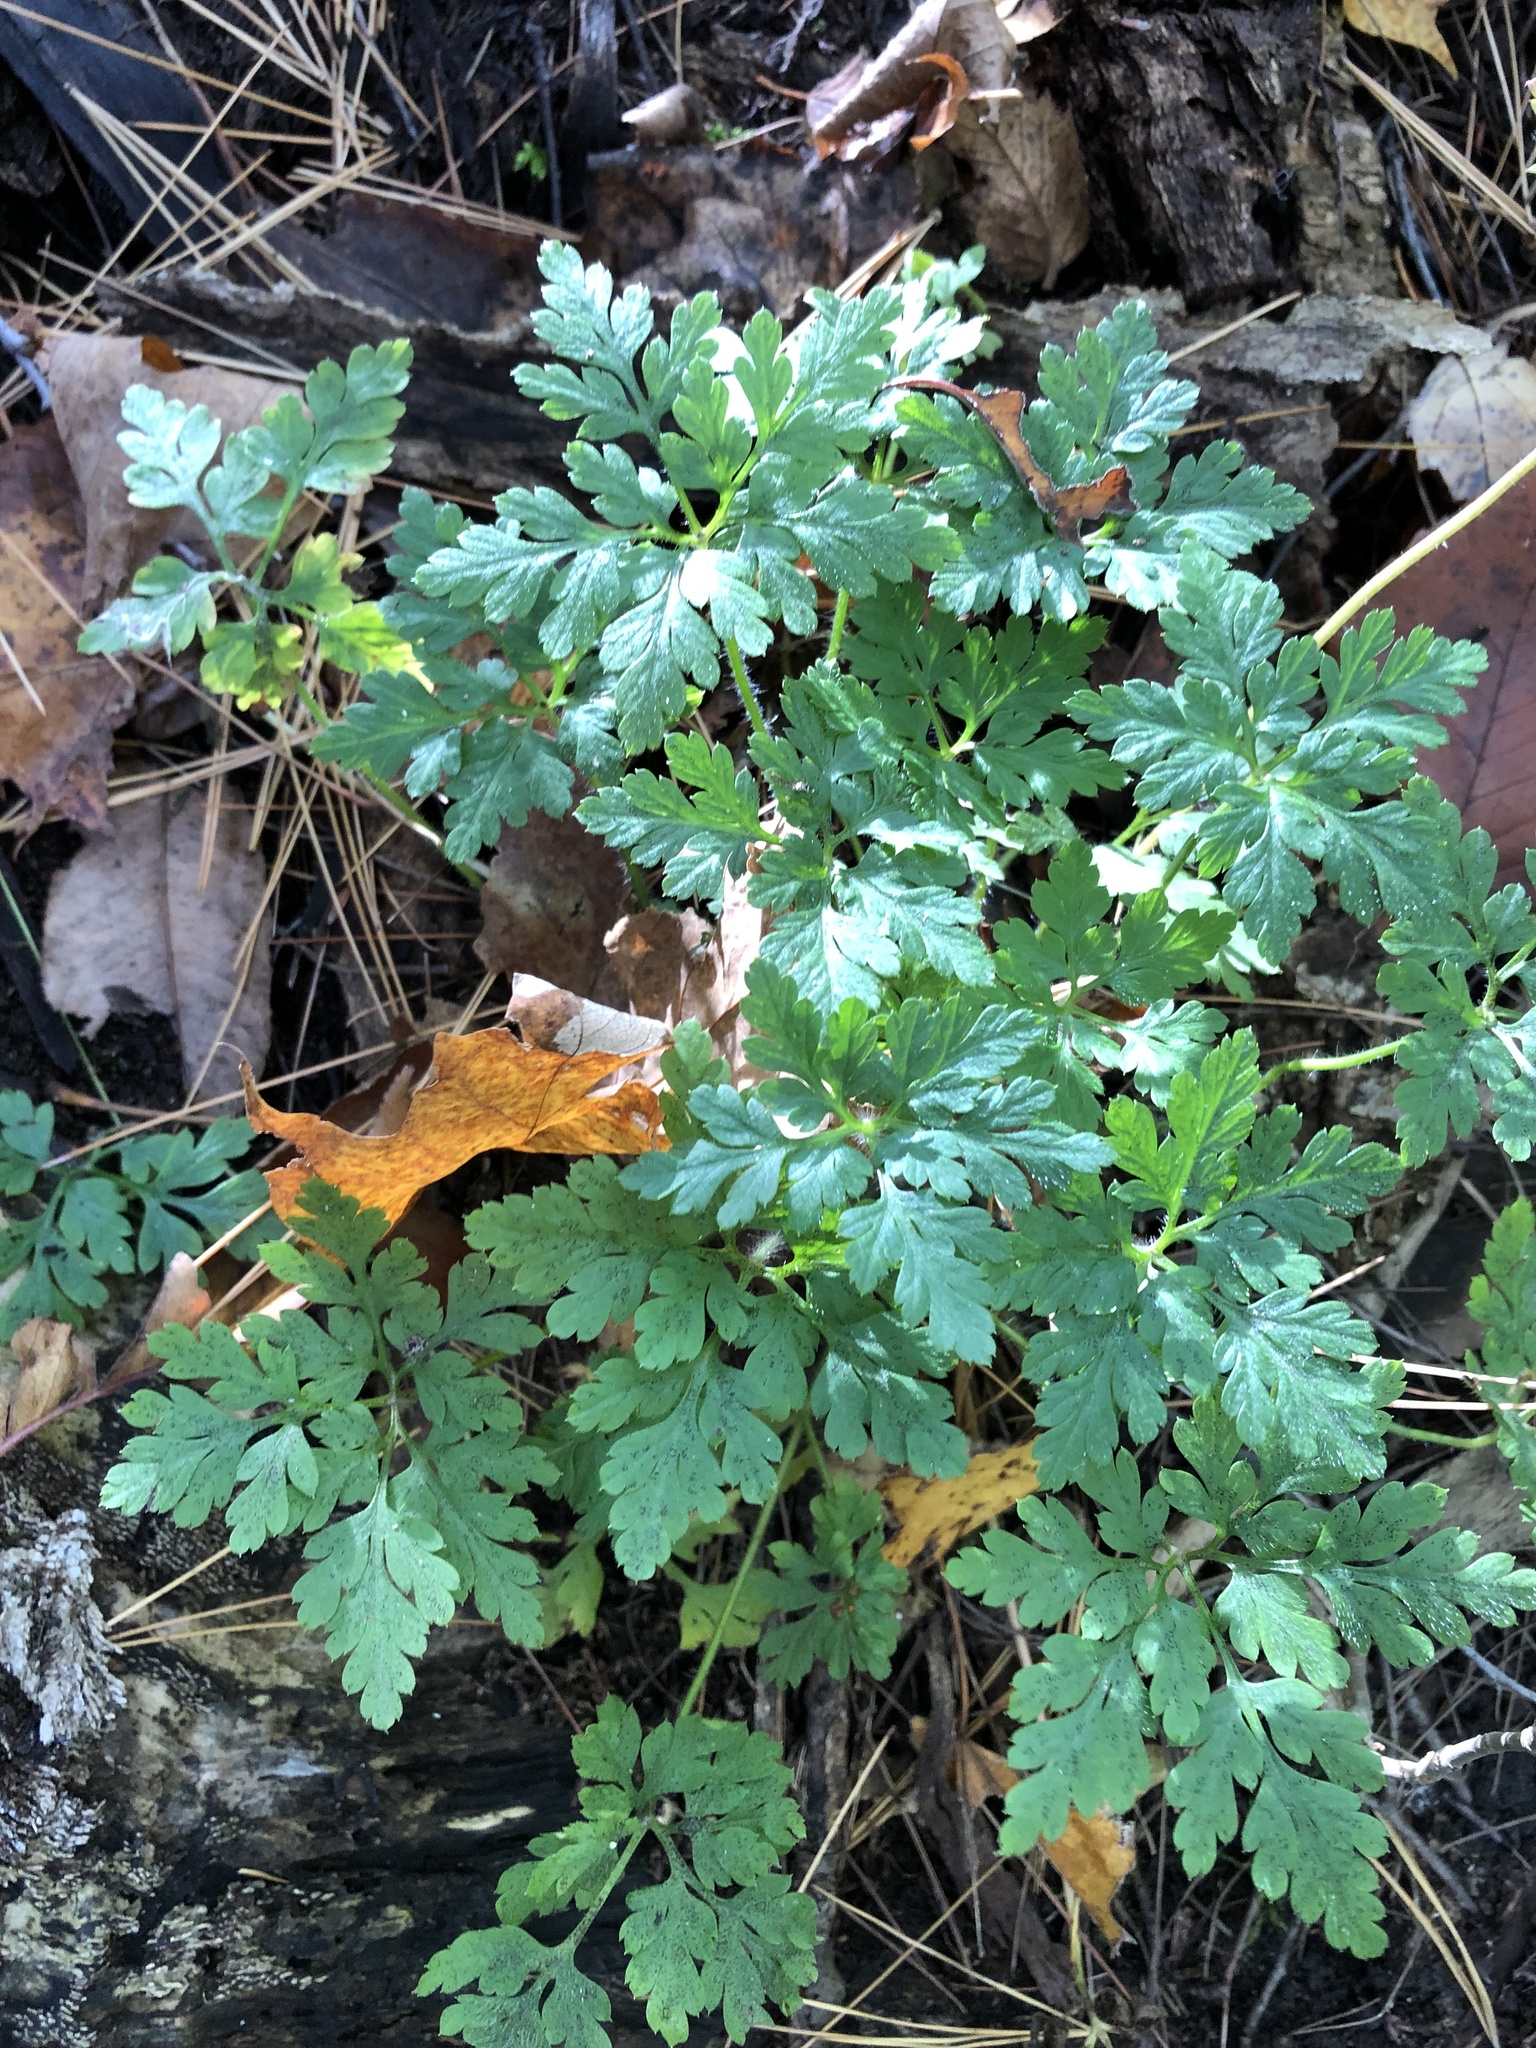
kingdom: Plantae
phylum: Tracheophyta
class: Magnoliopsida
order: Geraniales
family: Geraniaceae
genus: Geranium
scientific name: Geranium robertianum
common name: Herb-robert
